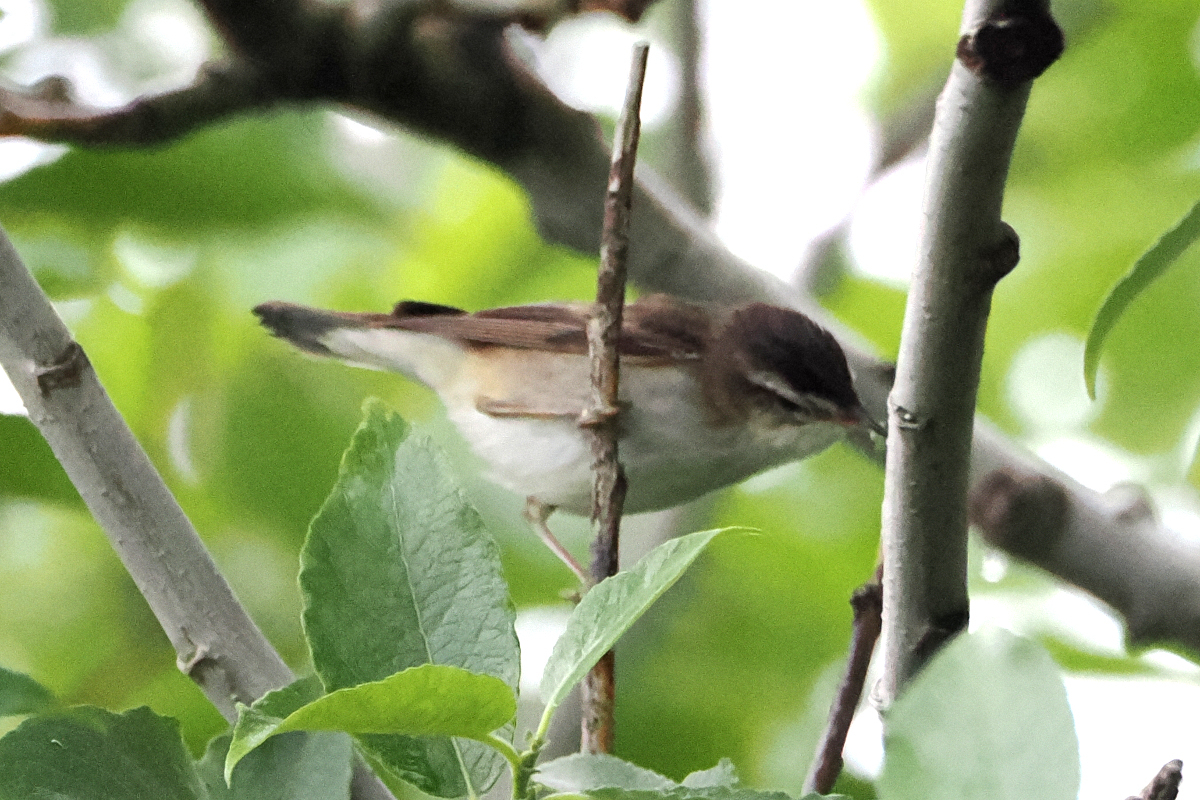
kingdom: Animalia
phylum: Chordata
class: Aves
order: Passeriformes
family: Acrocephalidae
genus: Acrocephalus
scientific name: Acrocephalus schoenobaenus
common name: Sedge warbler
